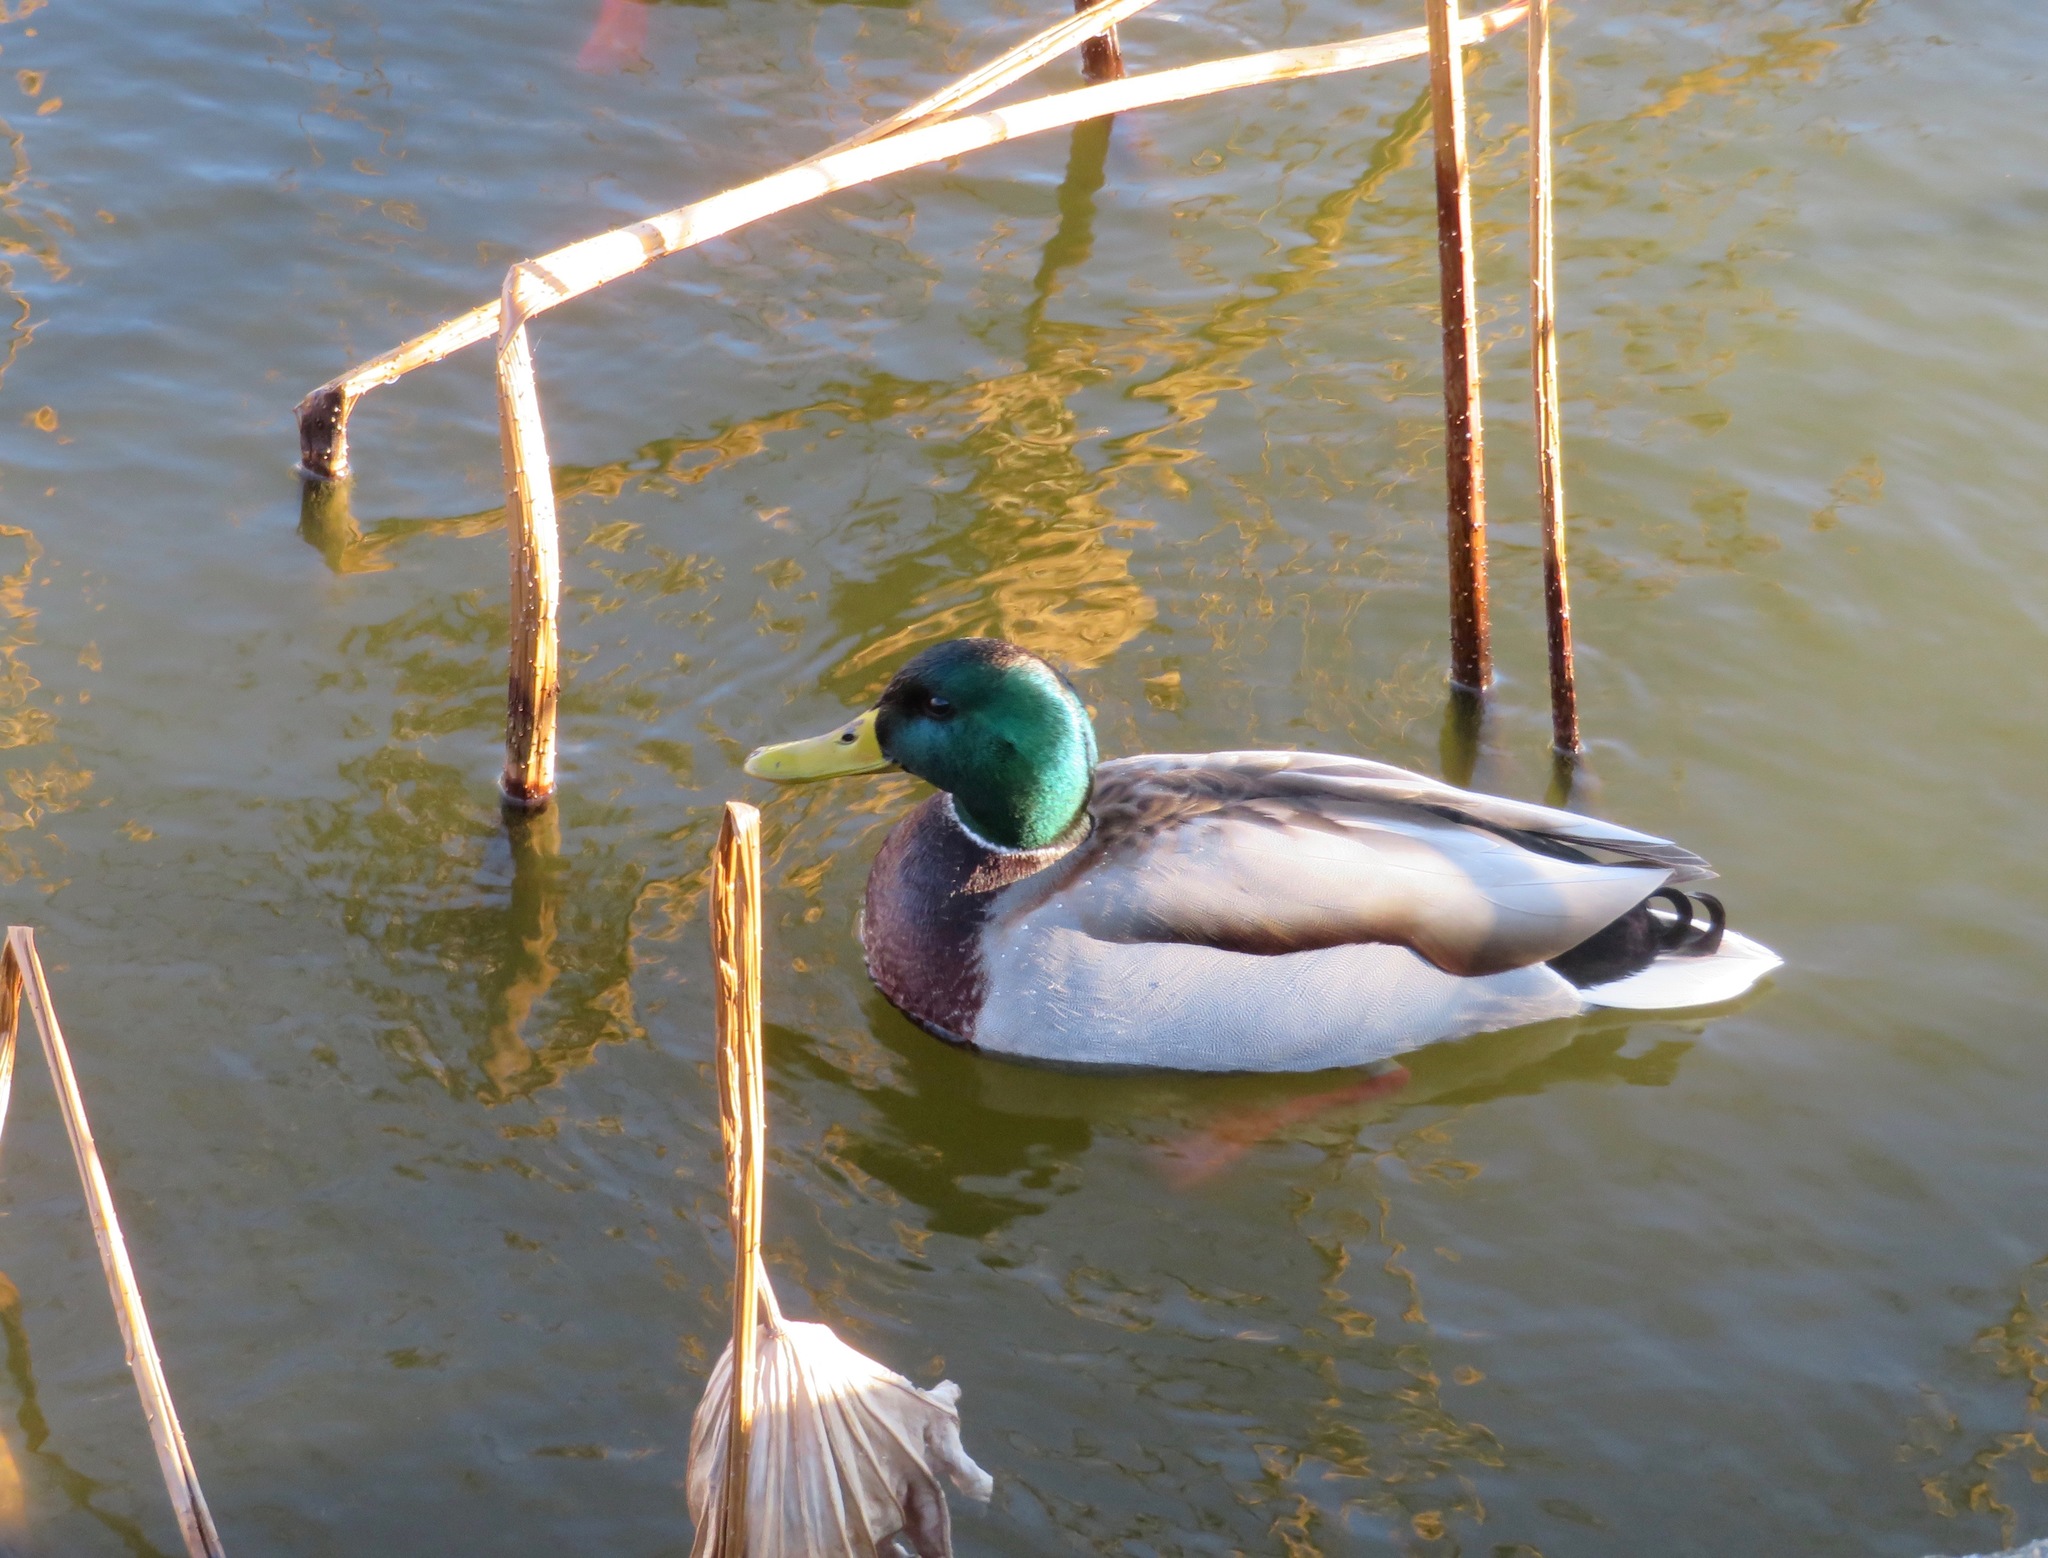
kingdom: Animalia
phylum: Chordata
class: Aves
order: Anseriformes
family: Anatidae
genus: Anas
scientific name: Anas platyrhynchos
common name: Mallard
